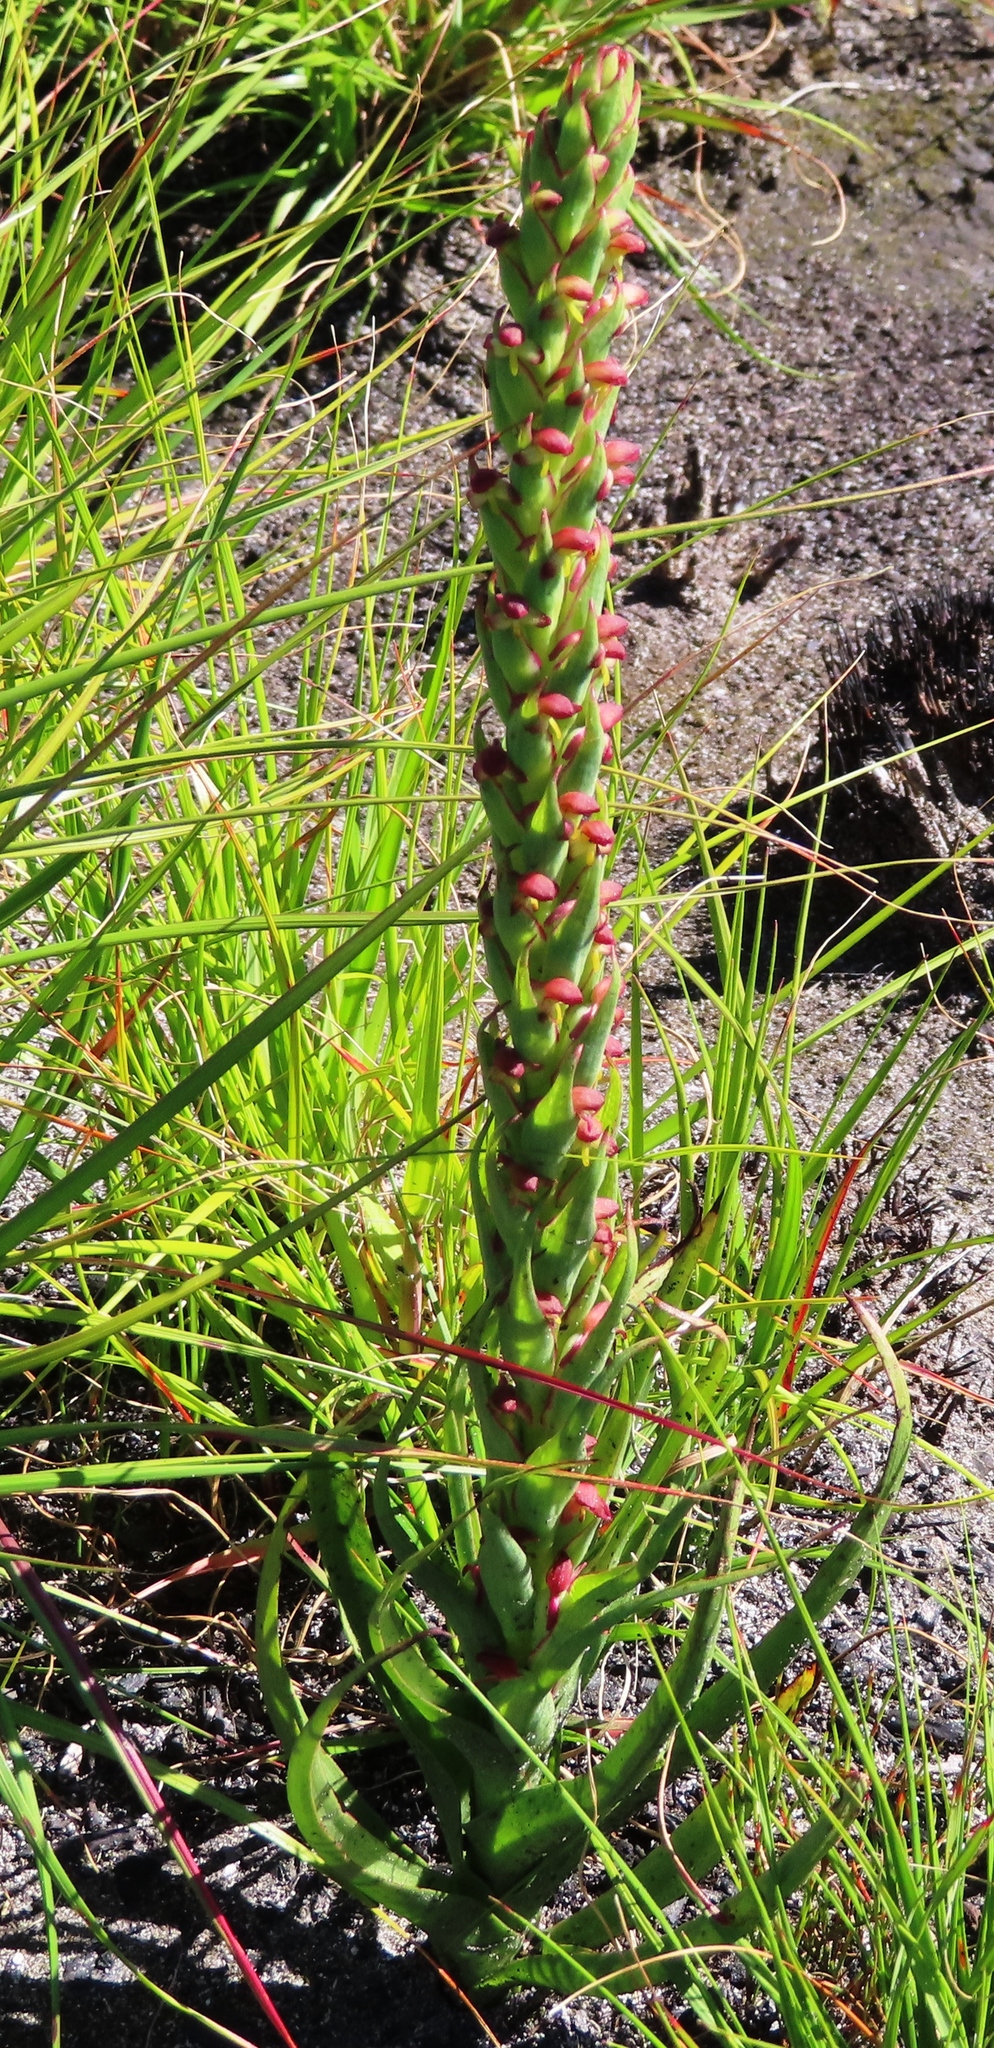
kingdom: Plantae
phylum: Tracheophyta
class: Liliopsida
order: Asparagales
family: Orchidaceae
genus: Disa
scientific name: Disa bracteata
